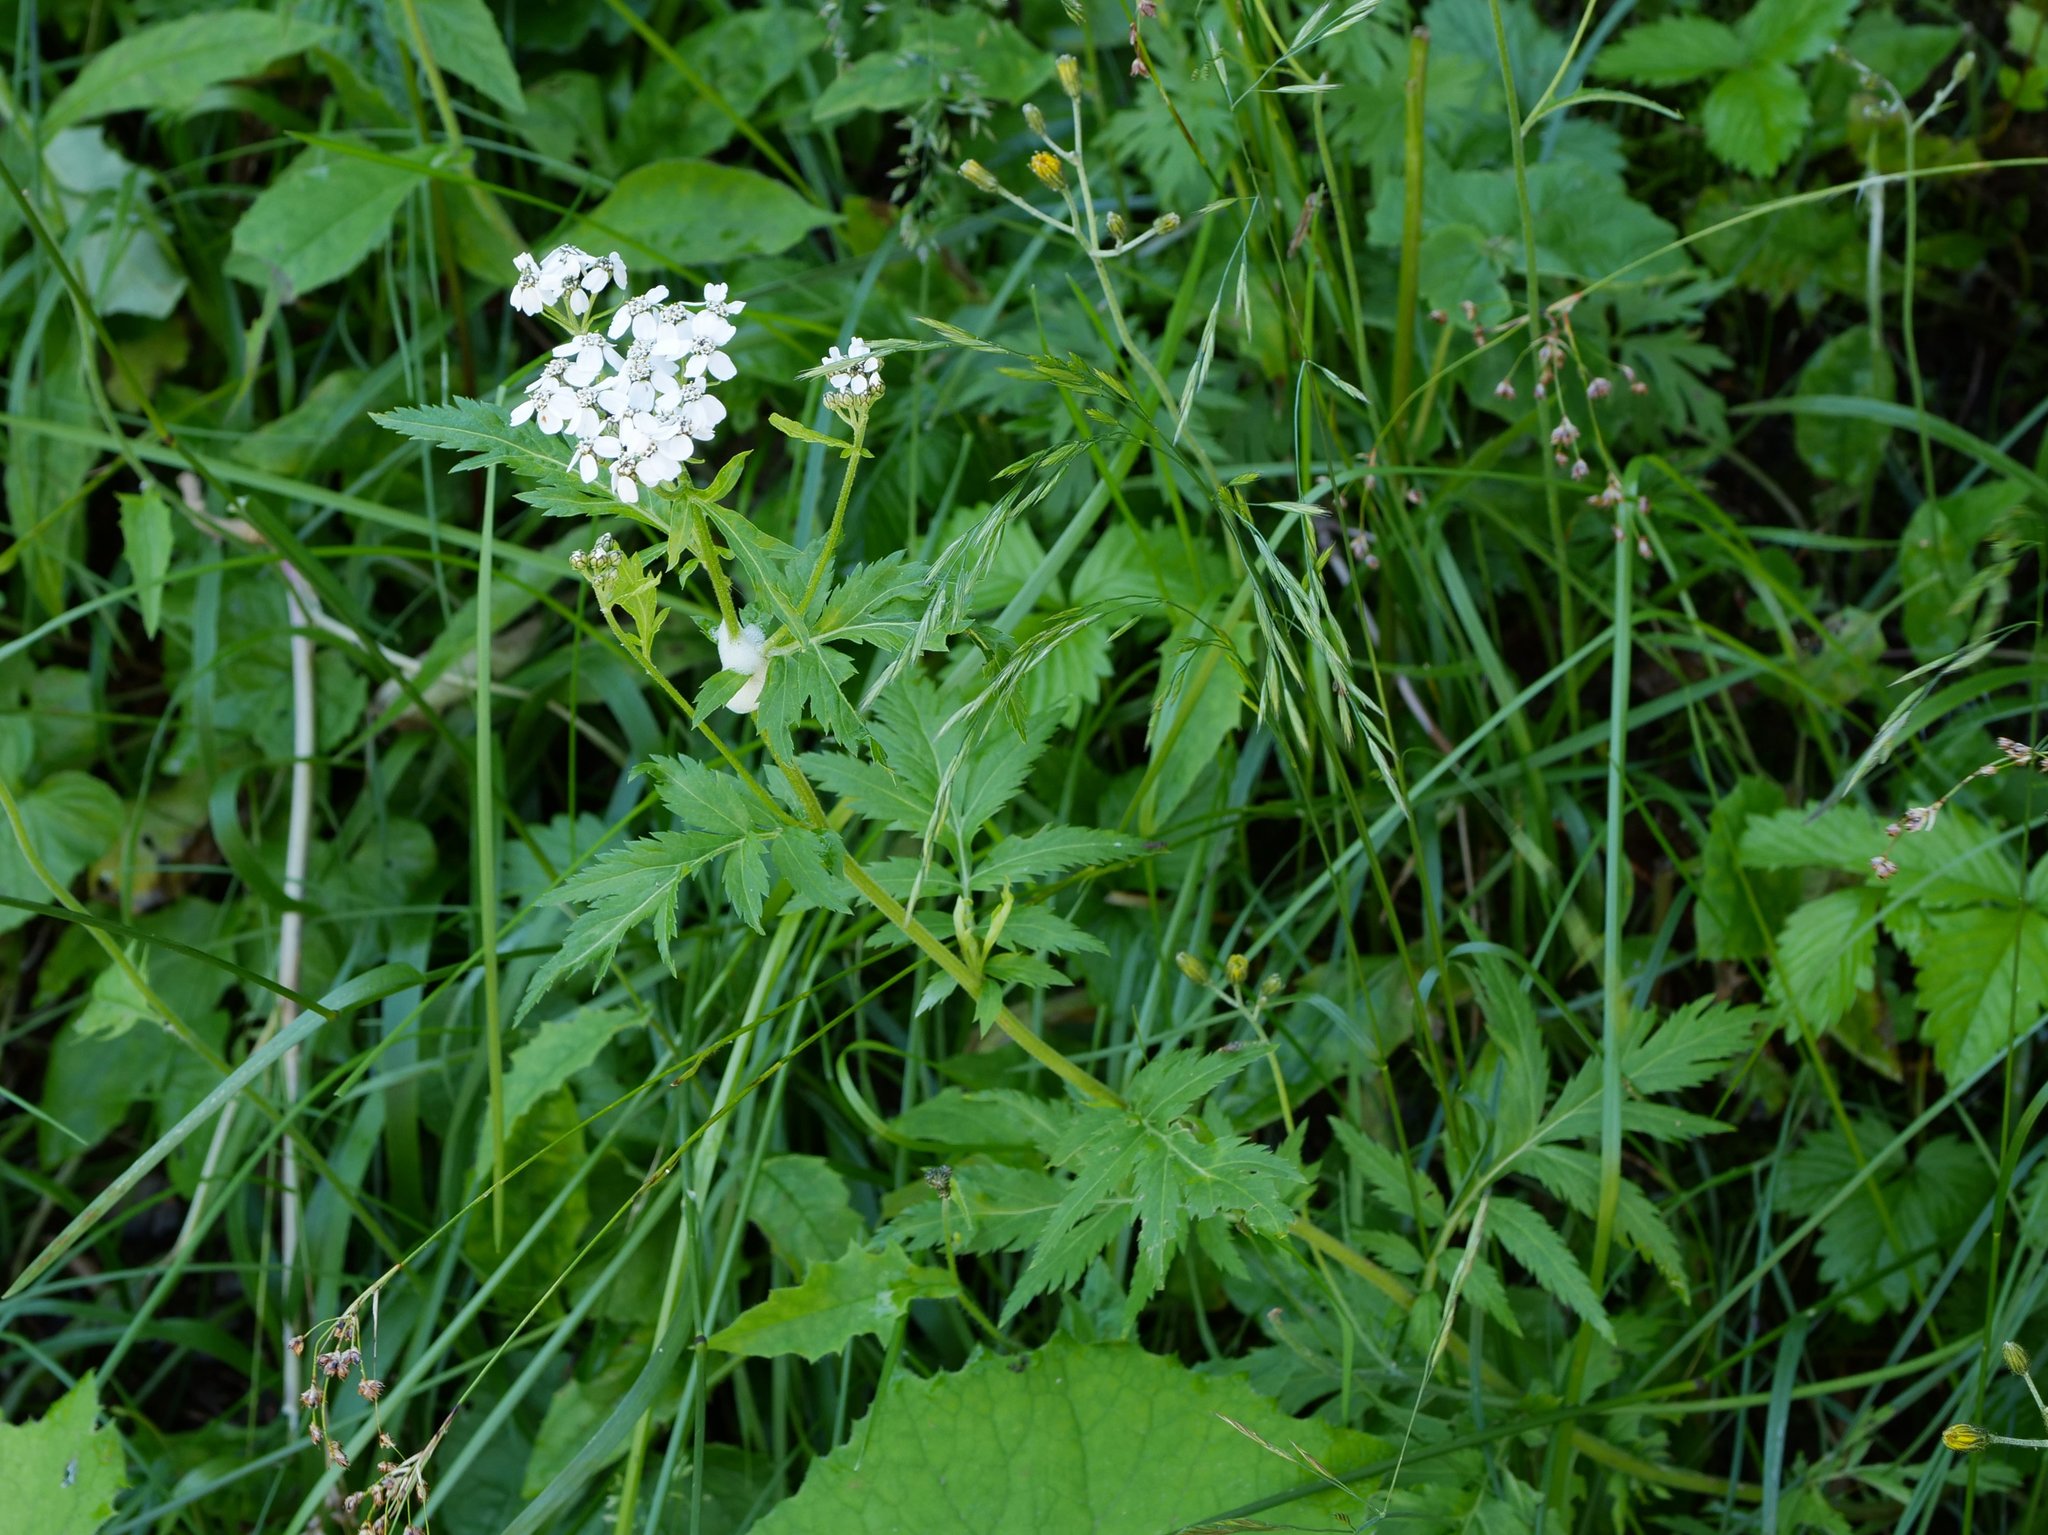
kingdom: Plantae
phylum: Tracheophyta
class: Magnoliopsida
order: Asterales
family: Asteraceae
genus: Achillea
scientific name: Achillea macrophylla
